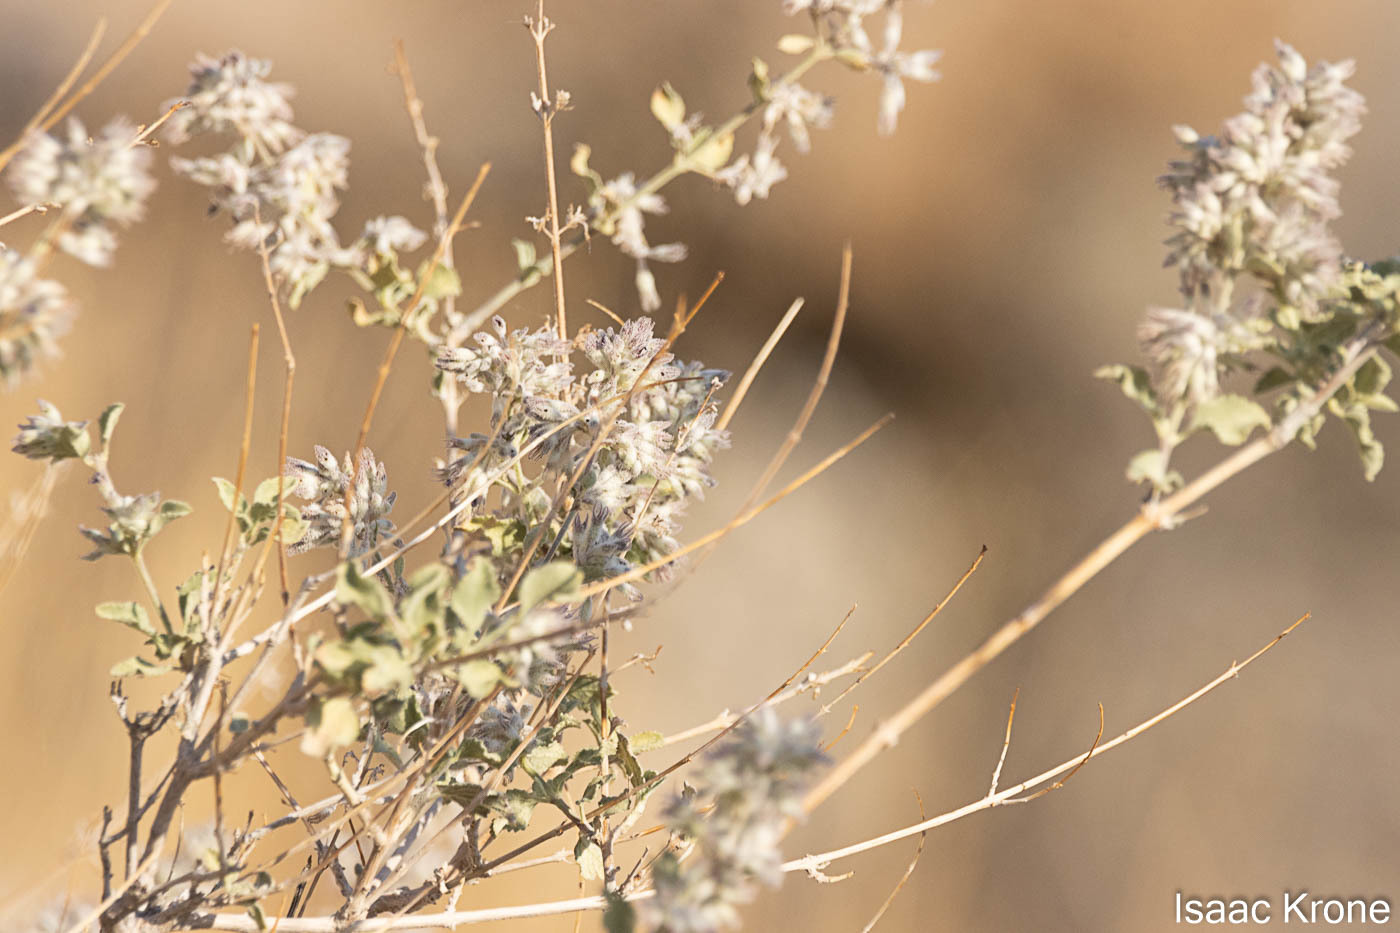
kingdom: Plantae
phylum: Tracheophyta
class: Magnoliopsida
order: Lamiales
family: Lamiaceae
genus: Condea
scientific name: Condea emoryi
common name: Chia
